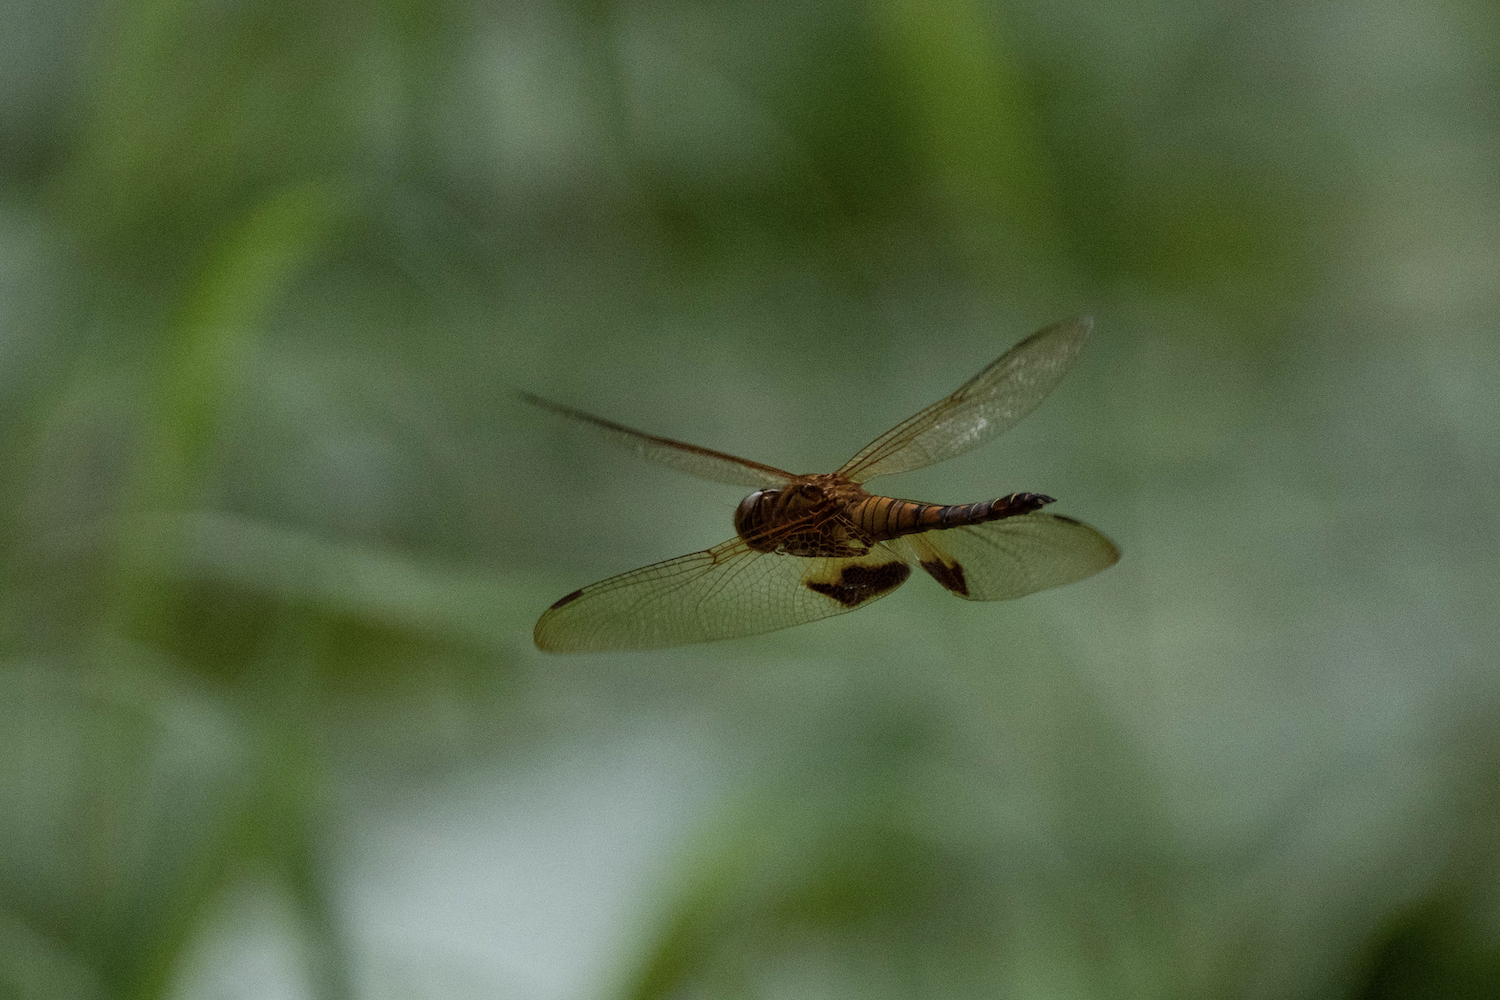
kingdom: Animalia
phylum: Arthropoda
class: Insecta
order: Odonata
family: Libellulidae
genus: Hydrobasileus
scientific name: Hydrobasileus croceus
